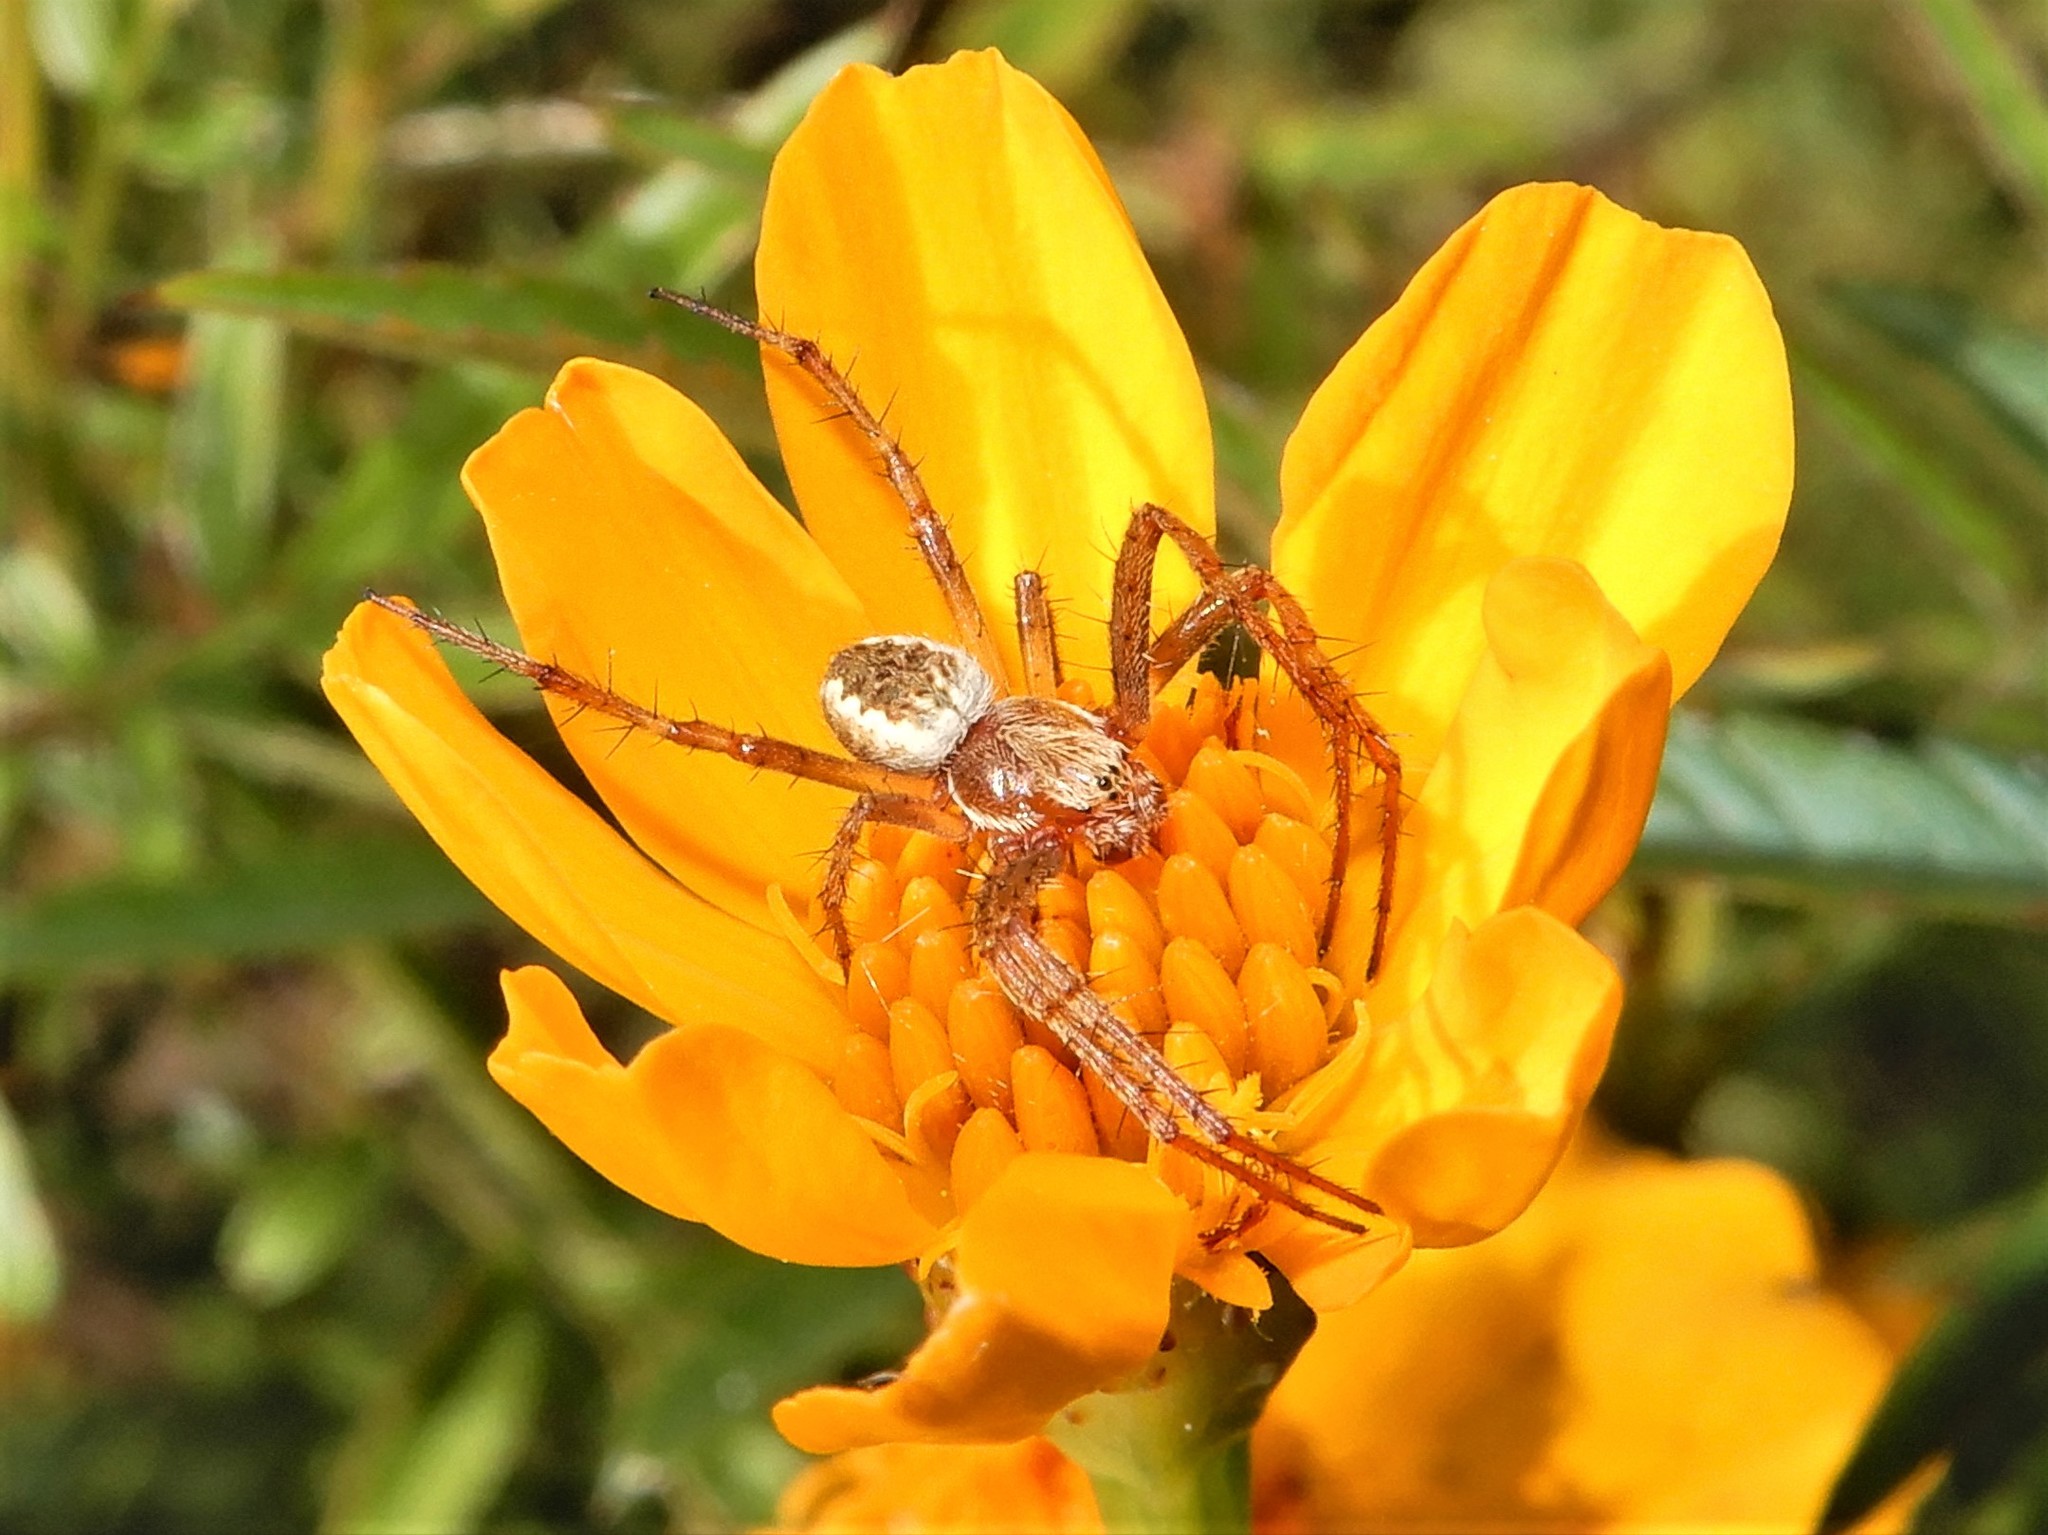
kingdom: Animalia
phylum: Arthropoda
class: Arachnida
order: Araneae
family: Araneidae
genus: Salsa
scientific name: Salsa fuliginata
